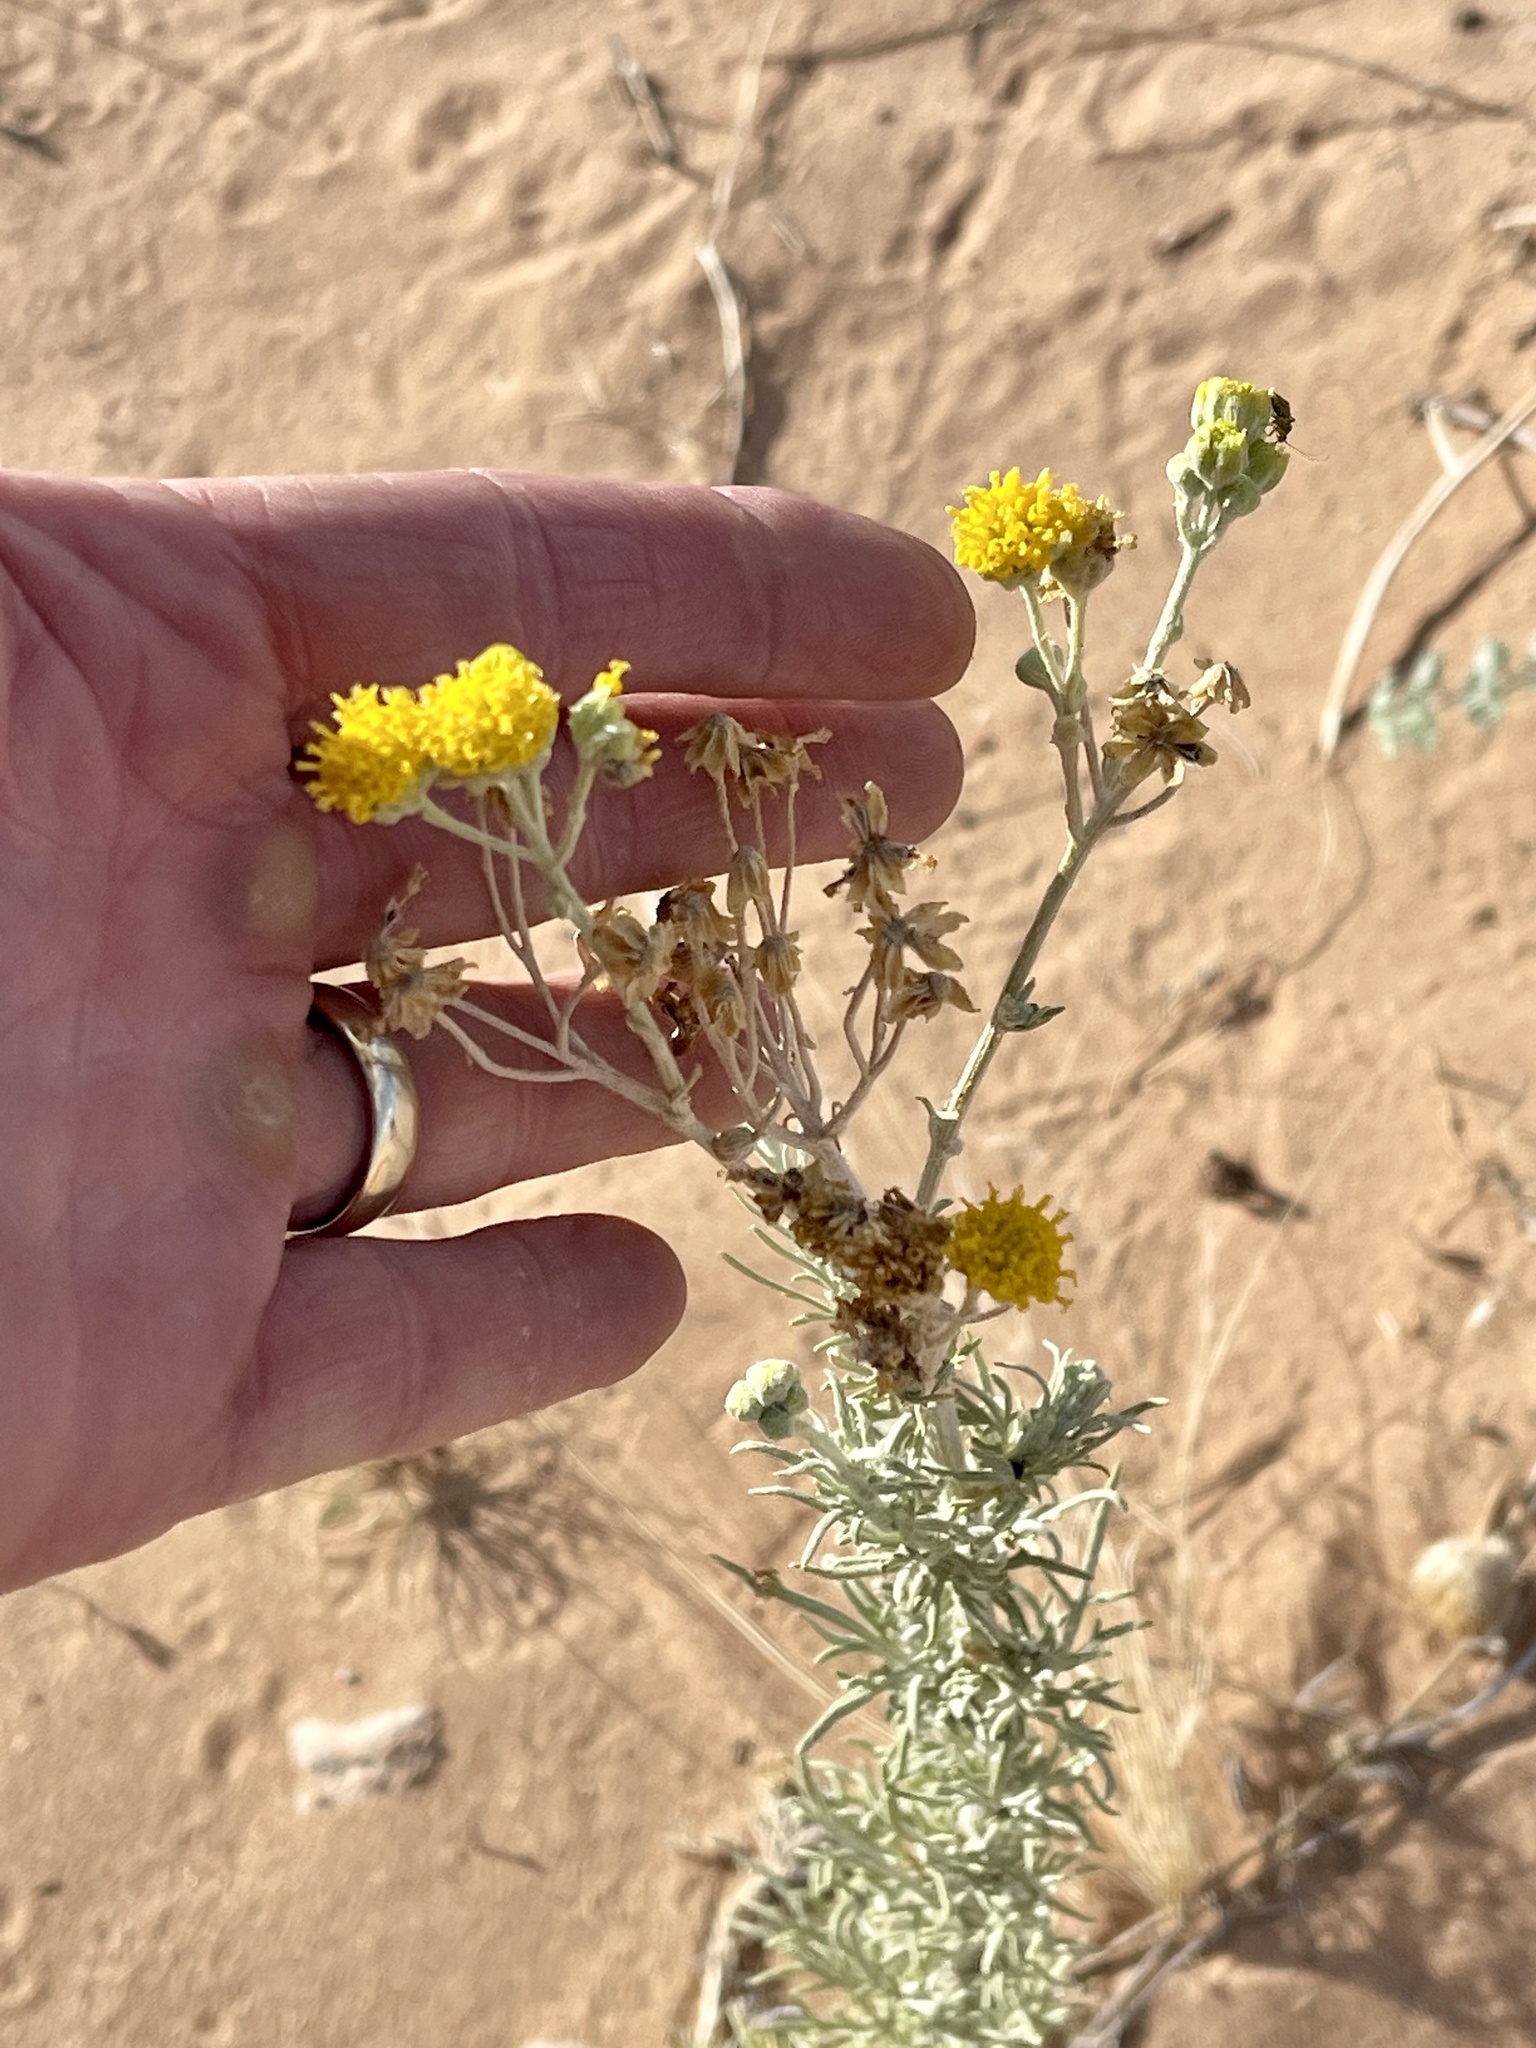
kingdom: Plantae
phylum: Tracheophyta
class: Magnoliopsida
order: Asterales
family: Asteraceae
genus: Hymenopappus
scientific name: Hymenopappus flavescens
